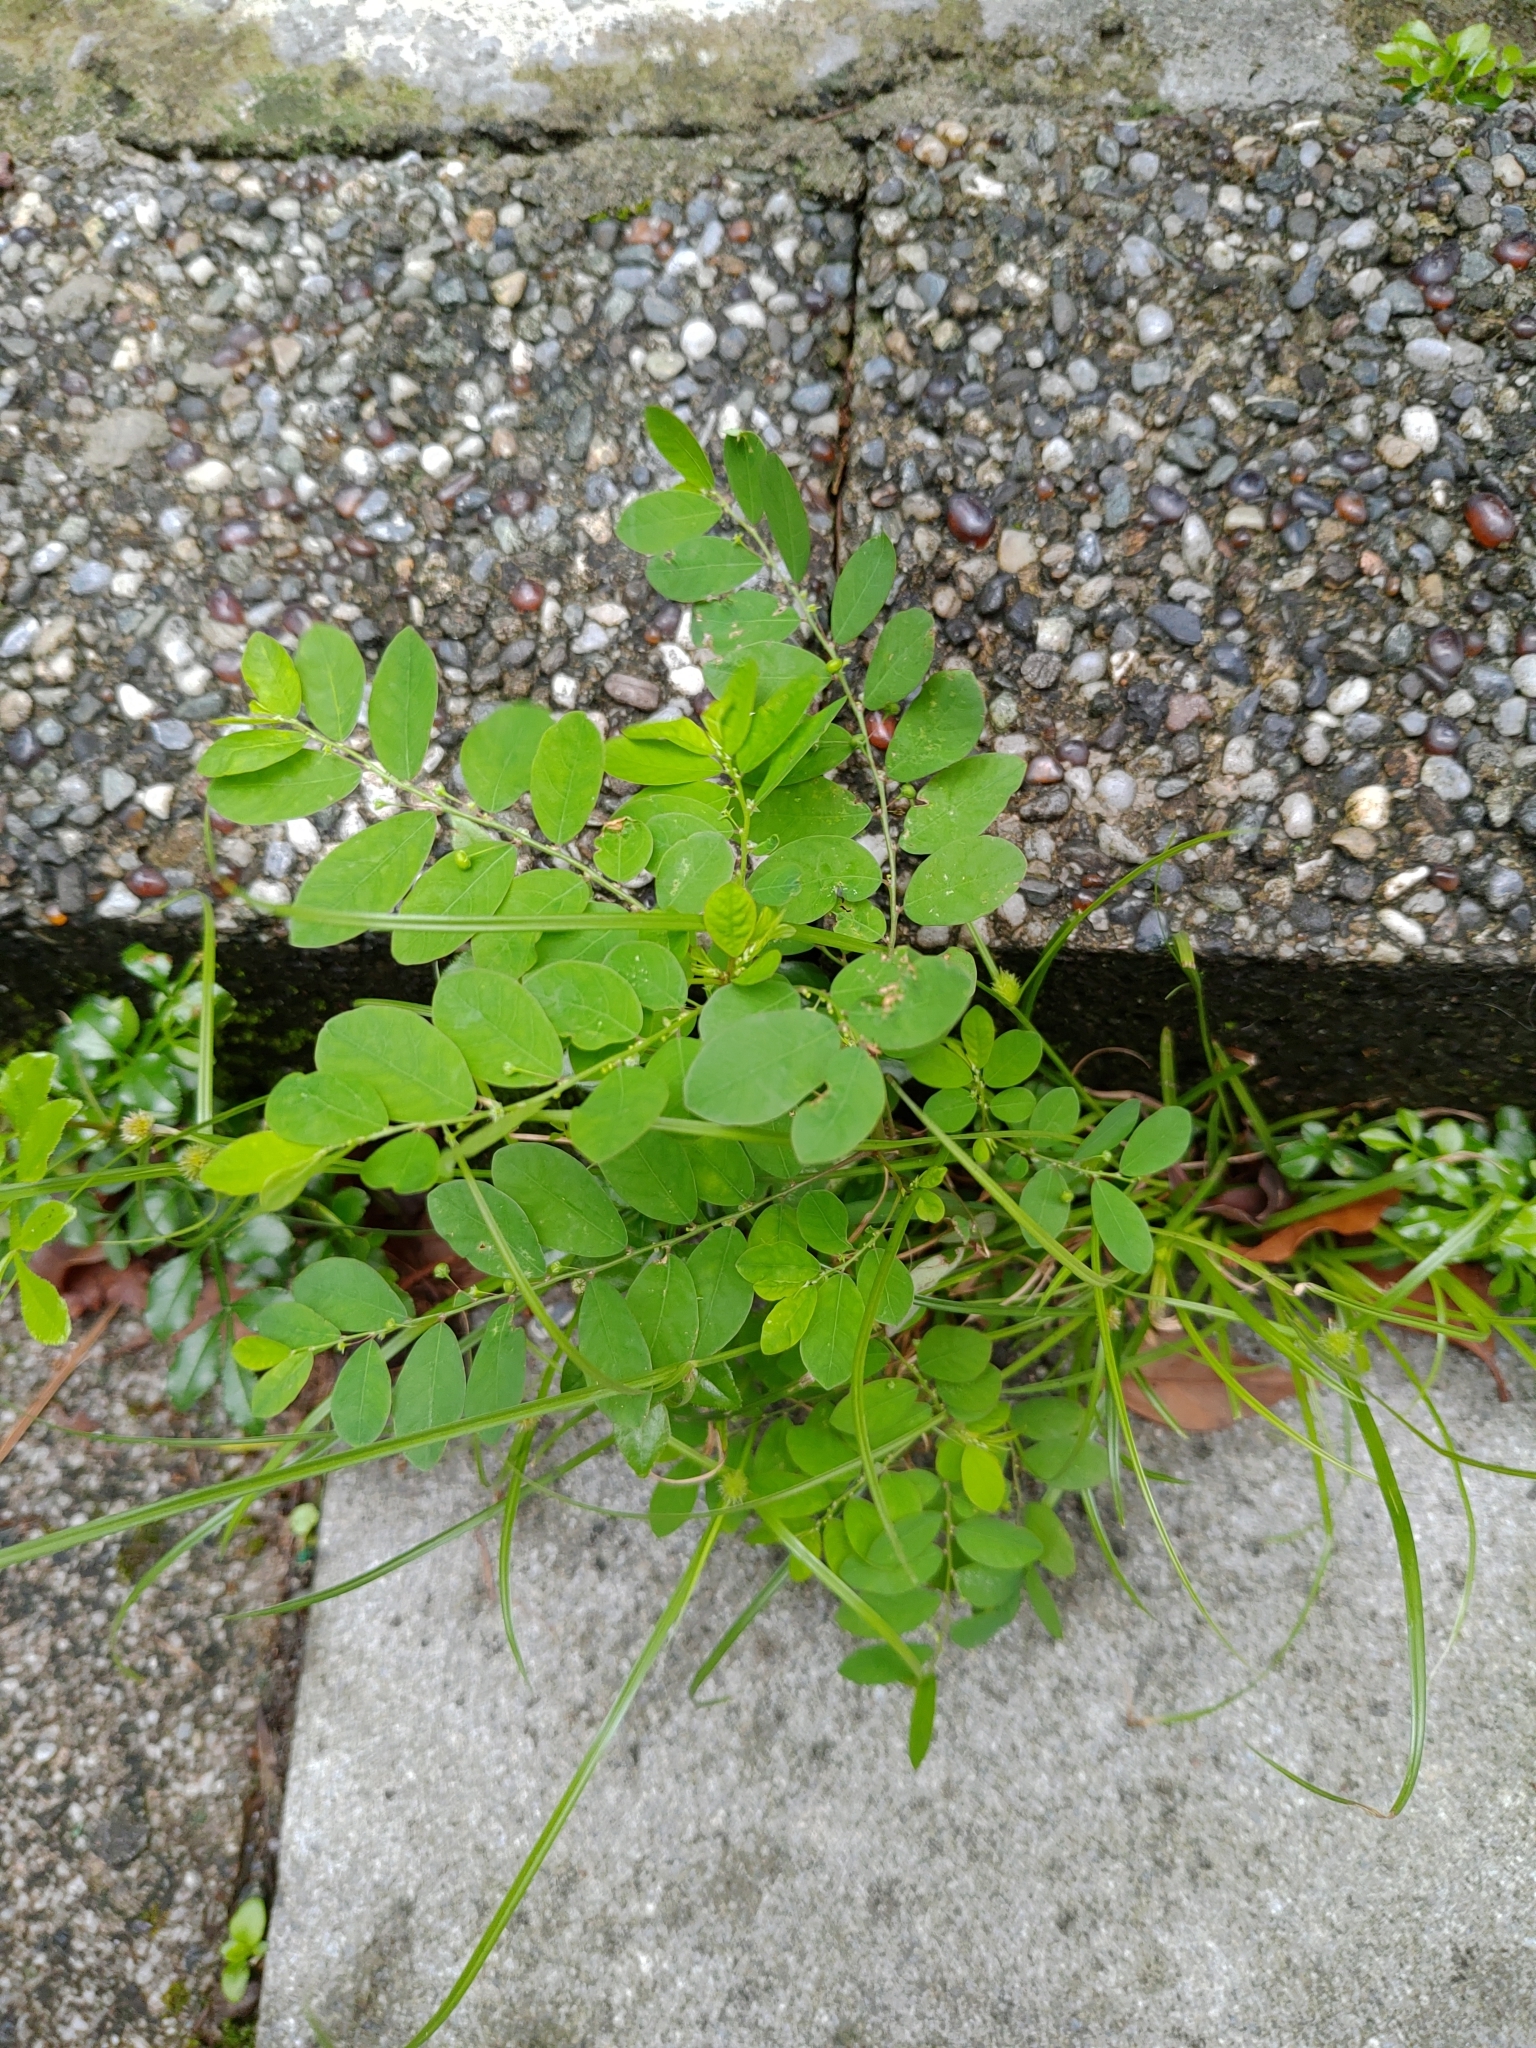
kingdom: Plantae
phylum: Tracheophyta
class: Magnoliopsida
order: Malpighiales
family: Phyllanthaceae
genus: Phyllanthus
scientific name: Phyllanthus tenellus
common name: Mascarene island leaf-flower
